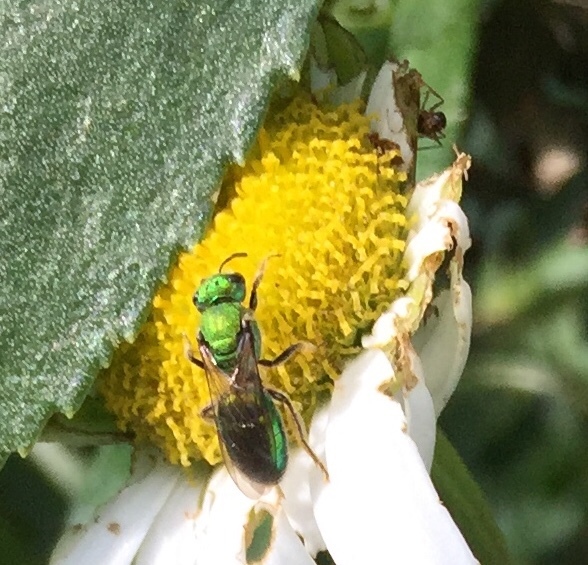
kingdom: Animalia
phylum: Arthropoda
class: Insecta
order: Hymenoptera
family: Halictidae
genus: Augochlora
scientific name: Augochlora pura
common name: Pure green sweat bee
